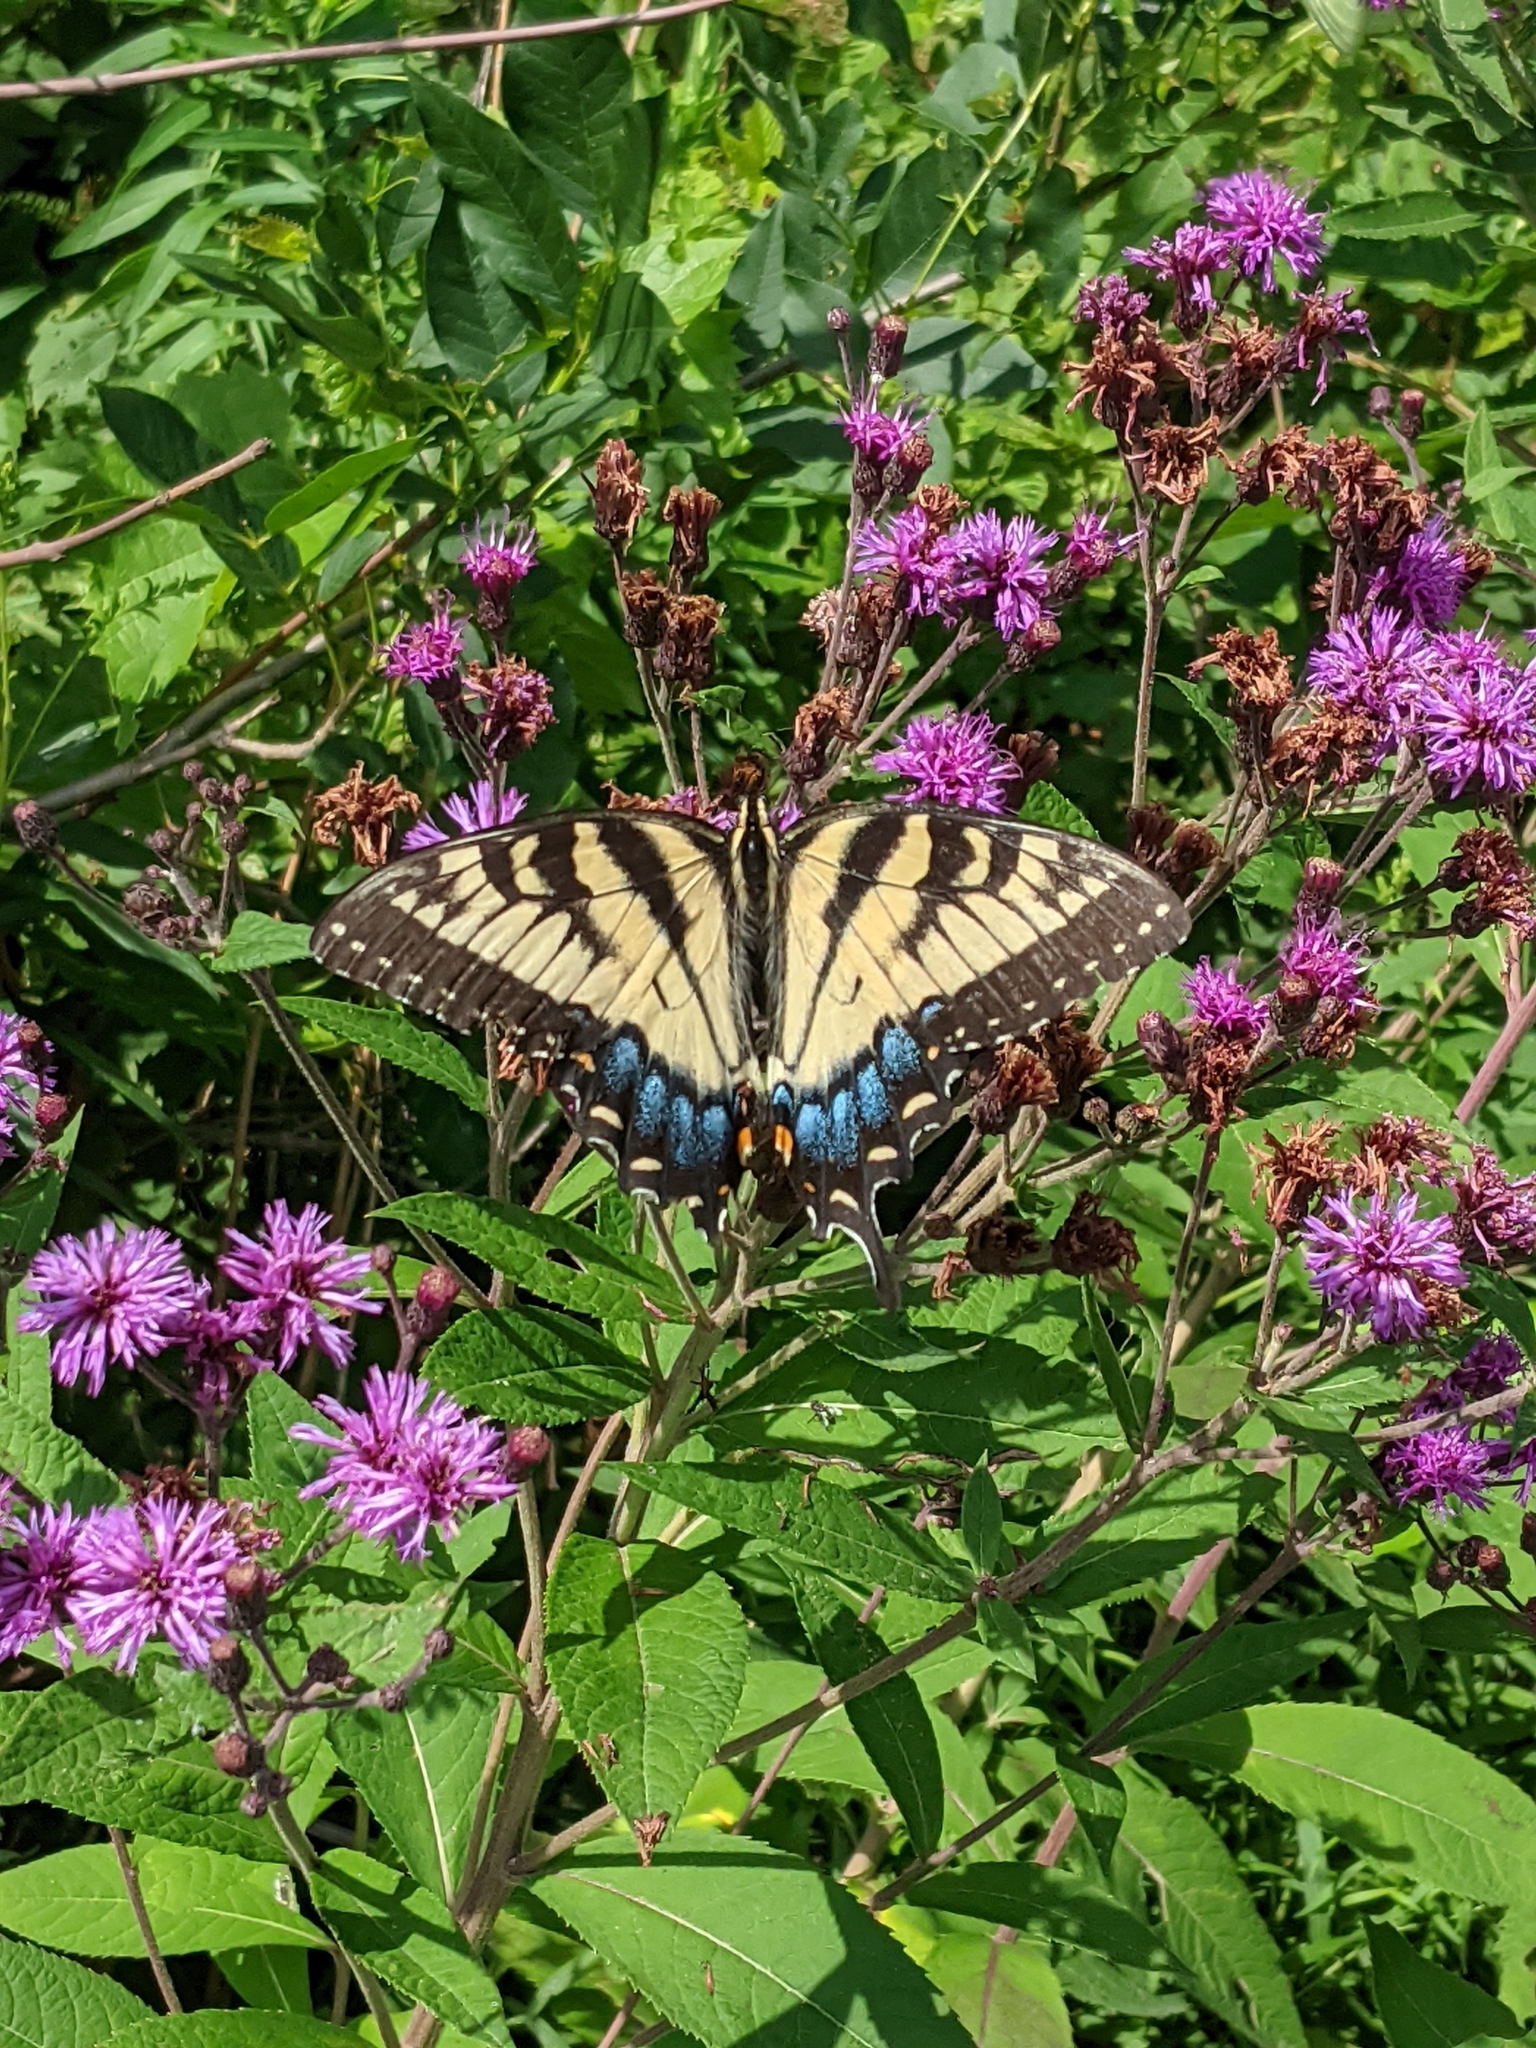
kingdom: Animalia
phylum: Arthropoda
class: Insecta
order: Lepidoptera
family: Papilionidae
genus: Papilio
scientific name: Papilio glaucus
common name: Tiger swallowtail
